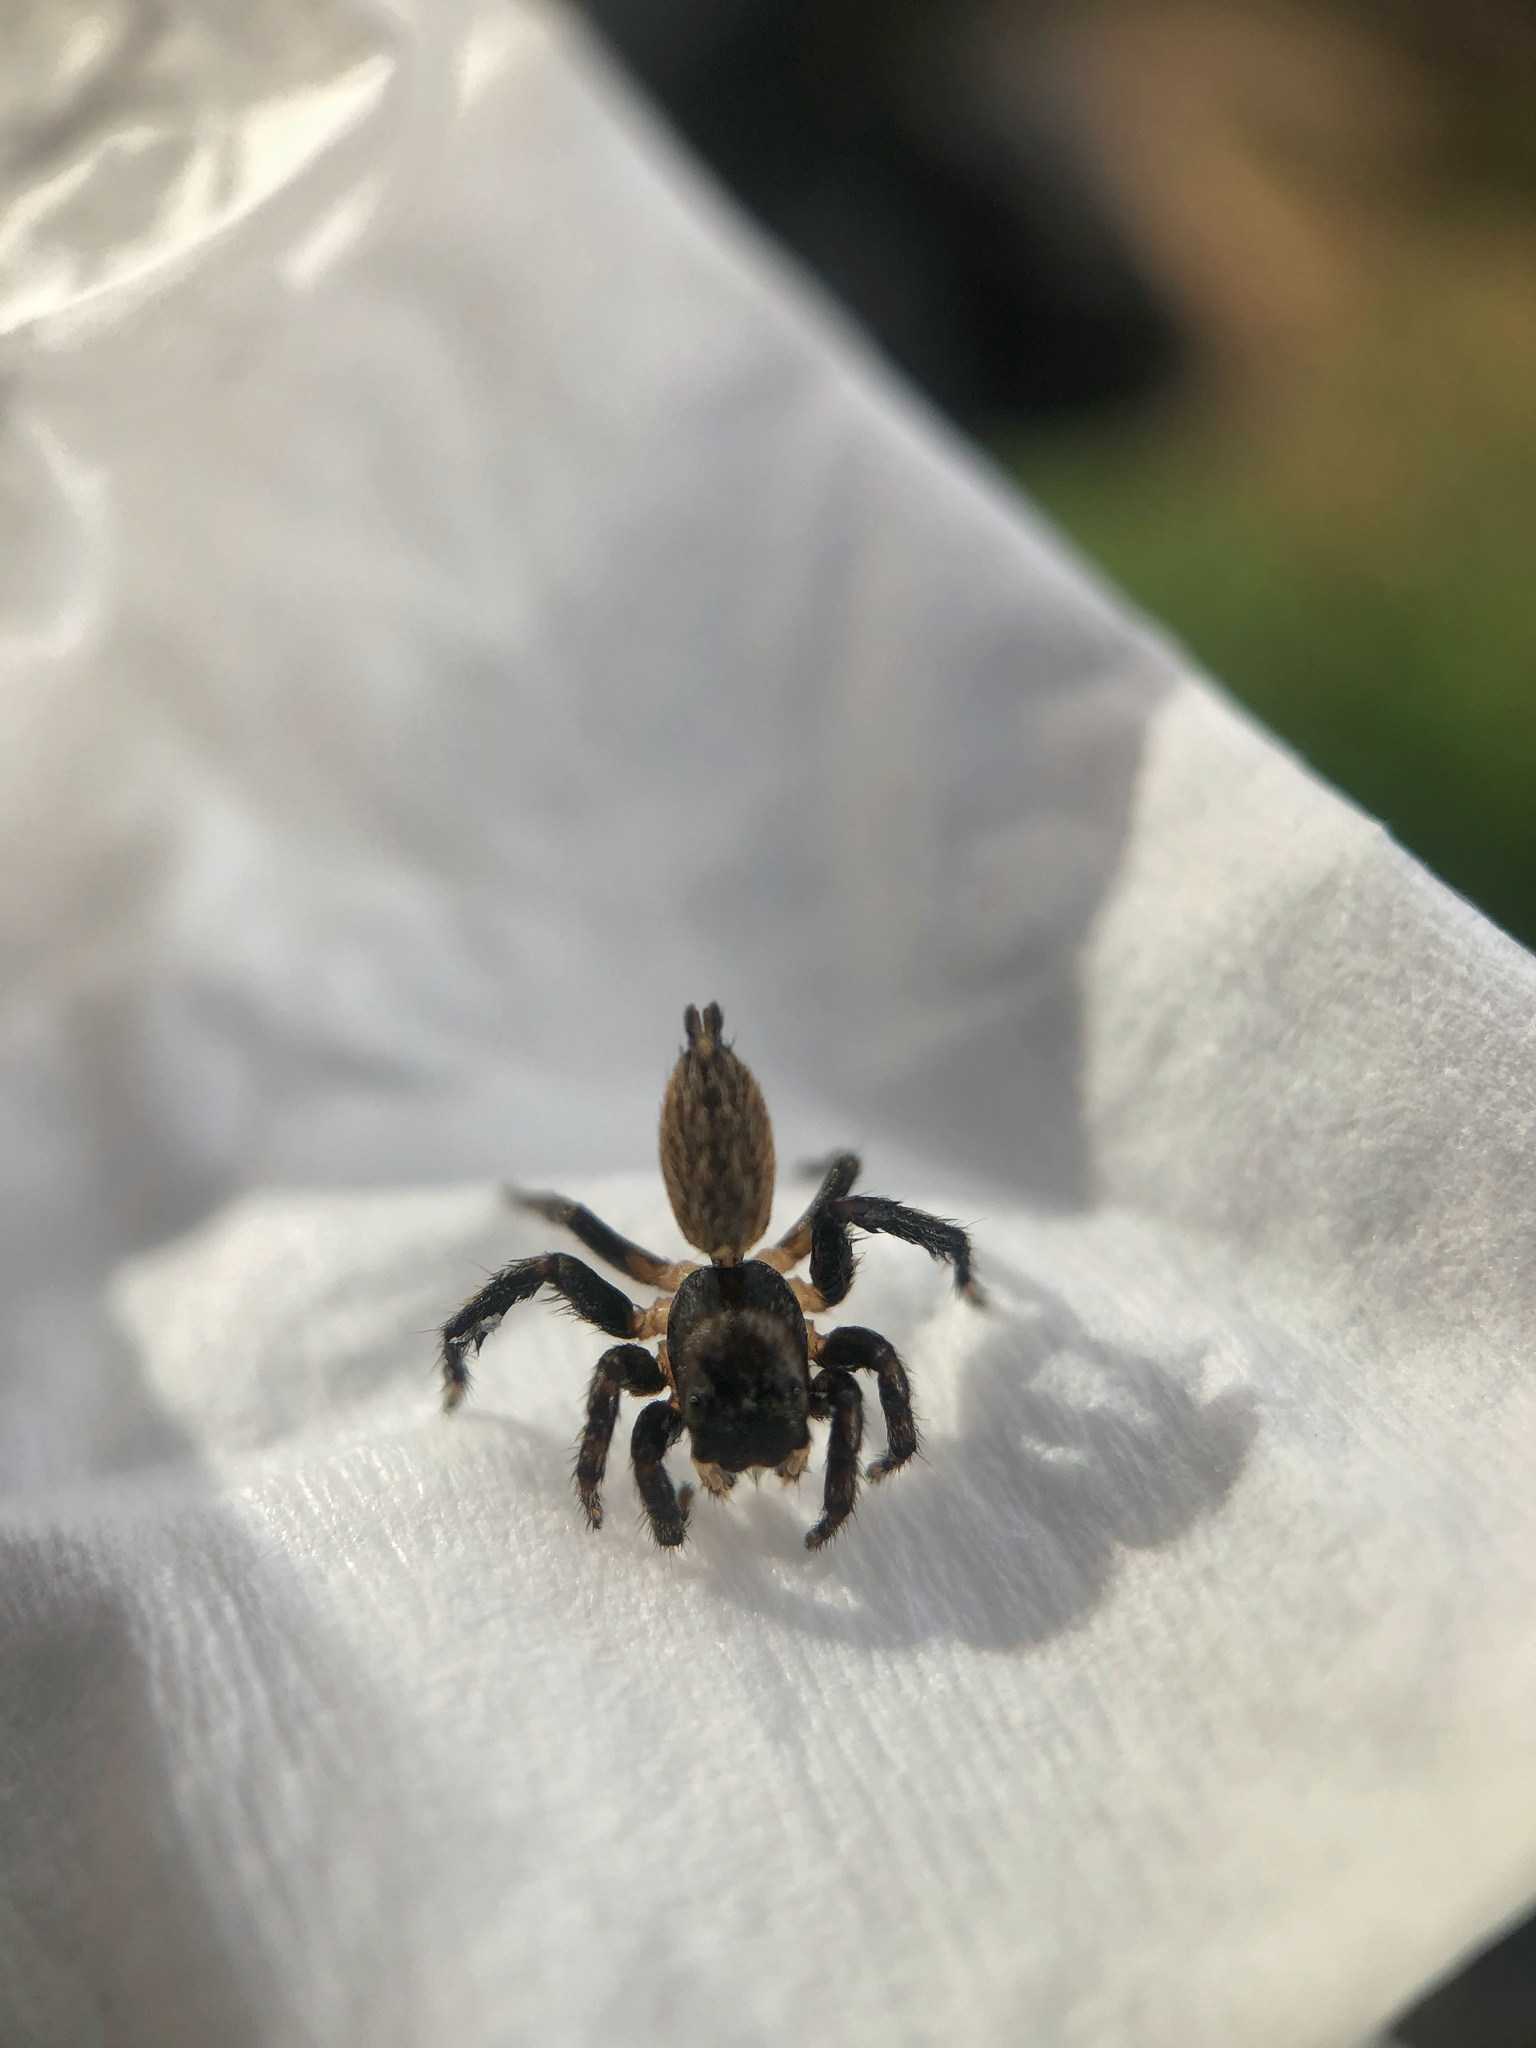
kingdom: Animalia
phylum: Arthropoda
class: Arachnida
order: Araneae
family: Salticidae
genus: Maratus
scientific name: Maratus griseus
